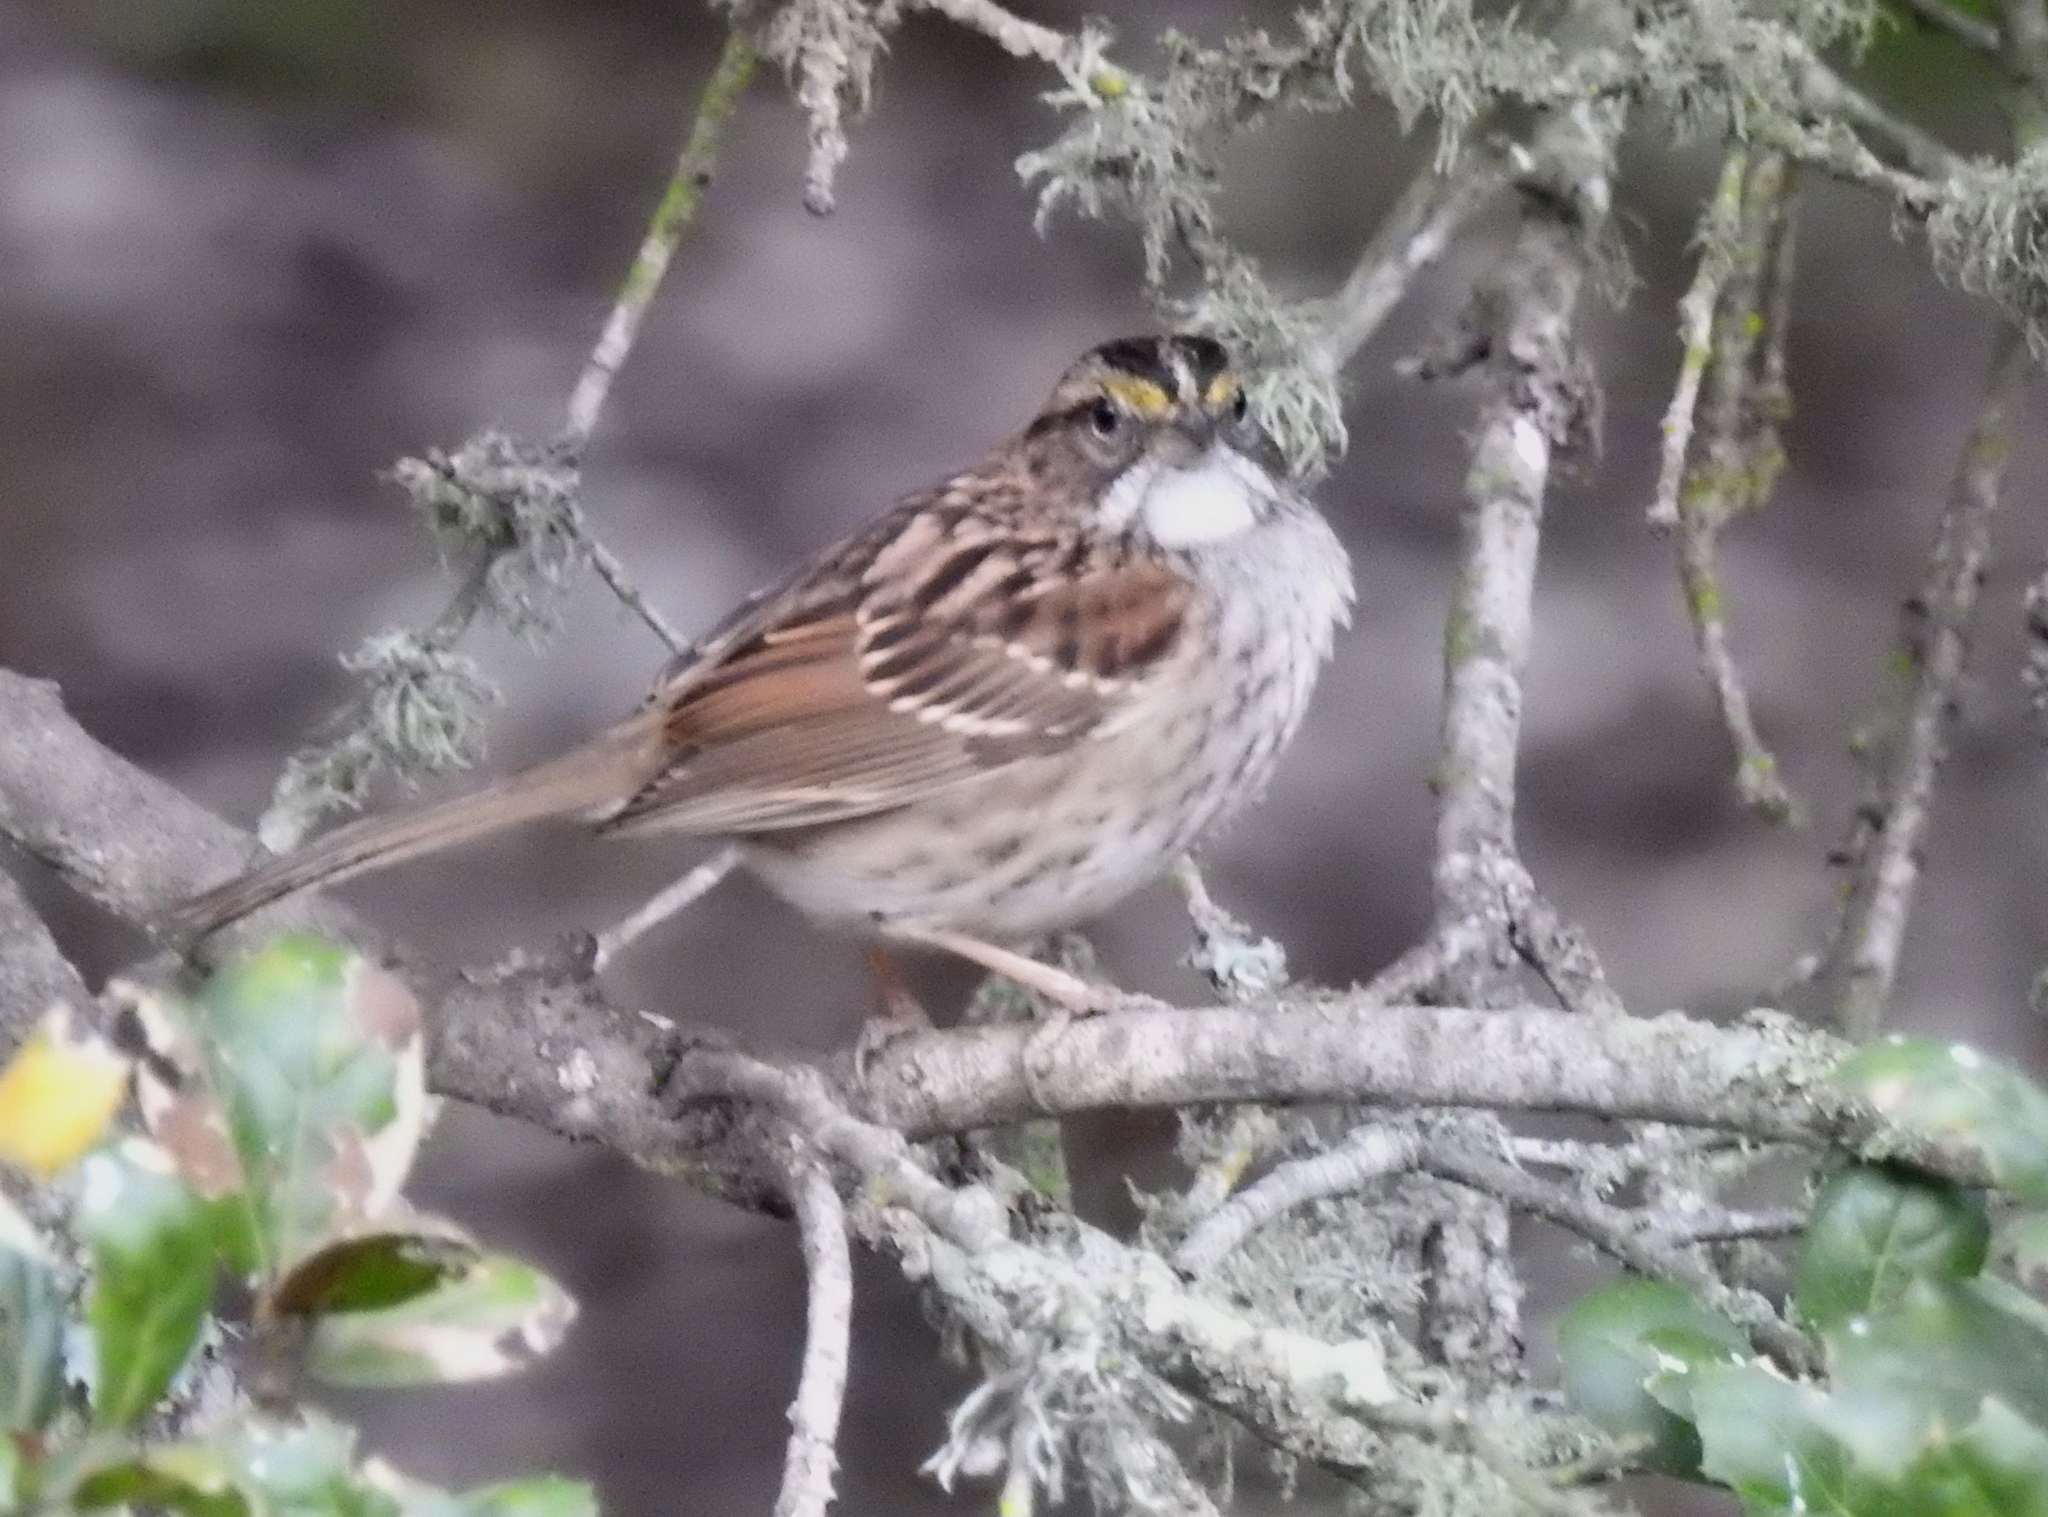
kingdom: Animalia
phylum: Chordata
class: Aves
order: Passeriformes
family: Passerellidae
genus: Zonotrichia
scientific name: Zonotrichia albicollis
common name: White-throated sparrow
